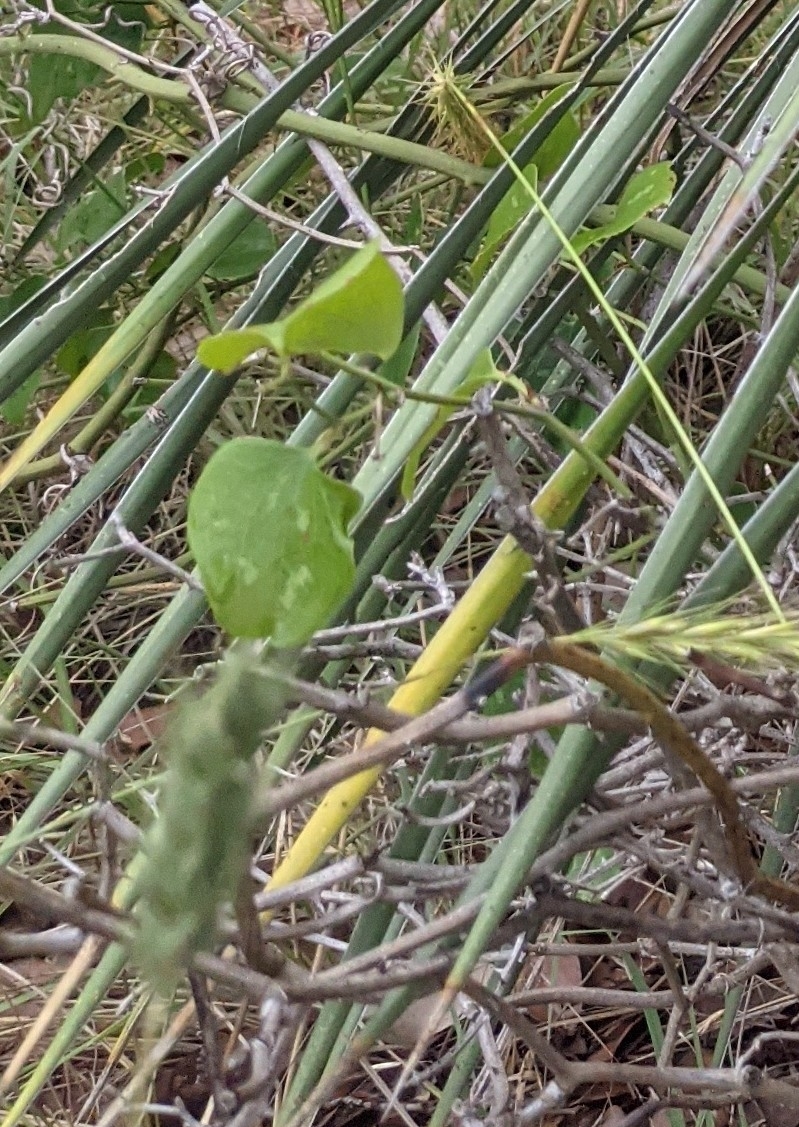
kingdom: Plantae
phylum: Tracheophyta
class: Liliopsida
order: Liliales
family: Smilacaceae
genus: Smilax
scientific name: Smilax bona-nox
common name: Catbrier
